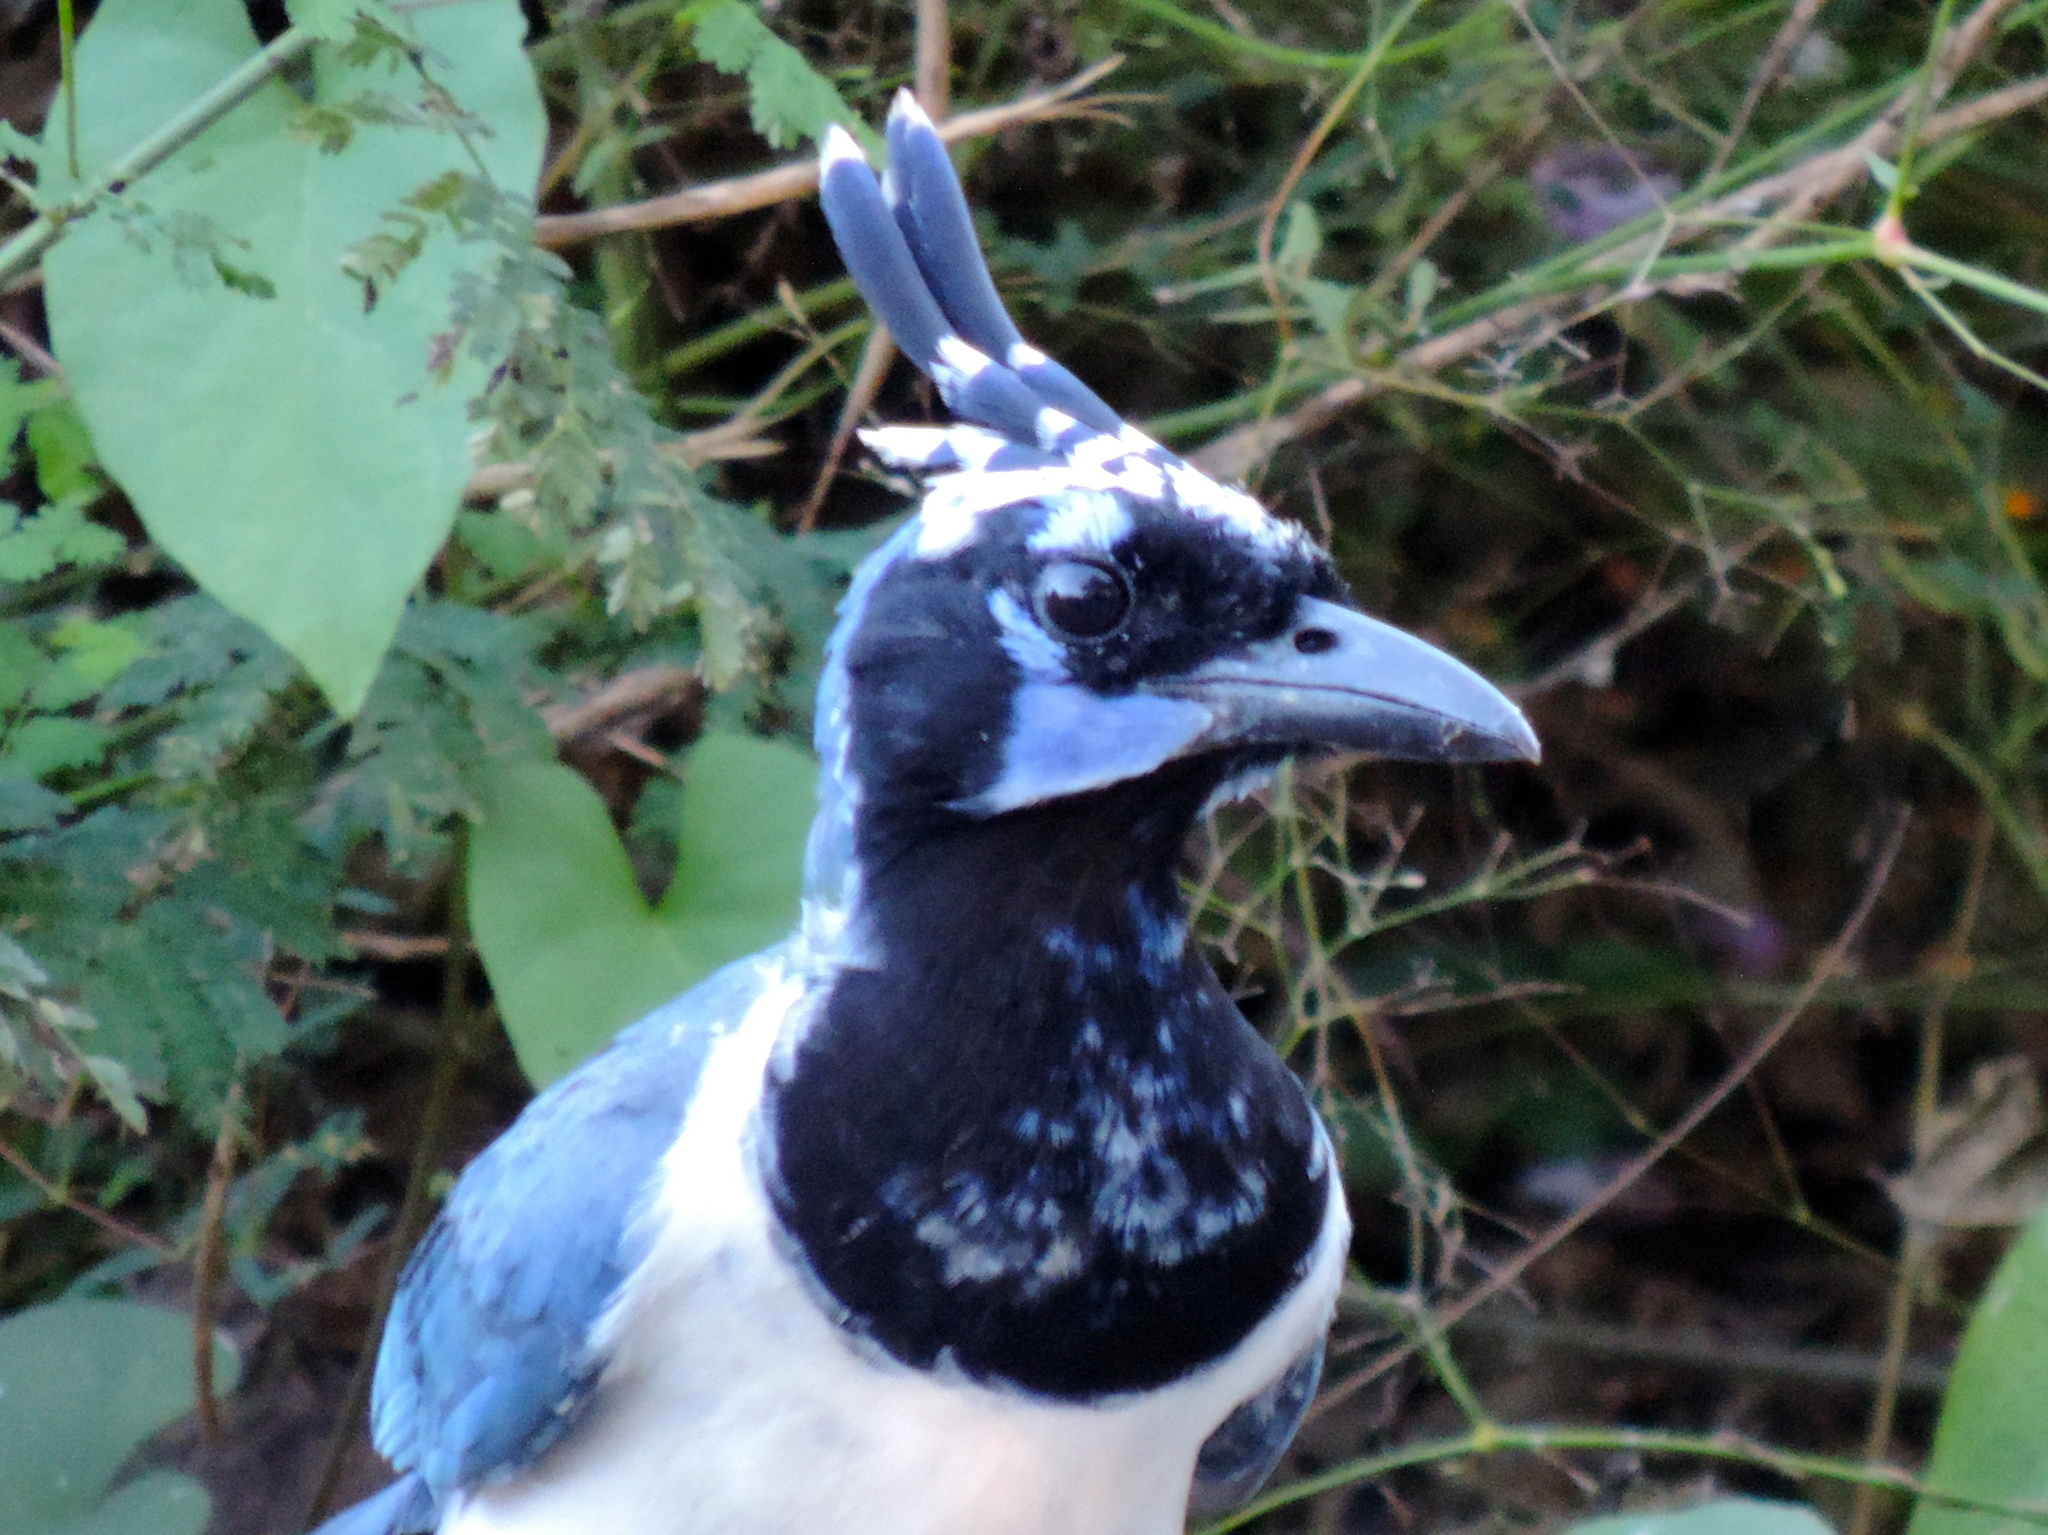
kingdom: Animalia
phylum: Chordata
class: Aves
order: Passeriformes
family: Corvidae
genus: Calocitta
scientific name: Calocitta colliei
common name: Black-throated magpie-jay
